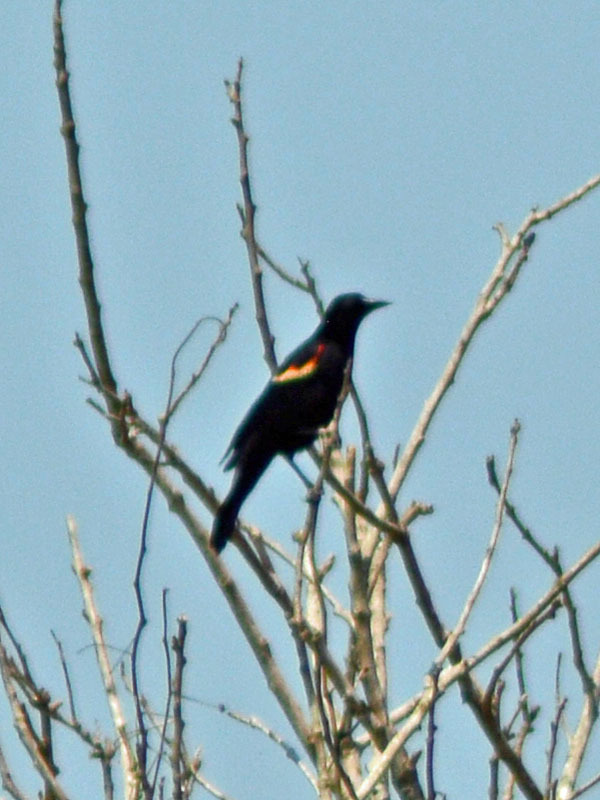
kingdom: Animalia
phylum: Chordata
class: Aves
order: Passeriformes
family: Icteridae
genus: Agelaius
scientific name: Agelaius phoeniceus
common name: Red-winged blackbird
